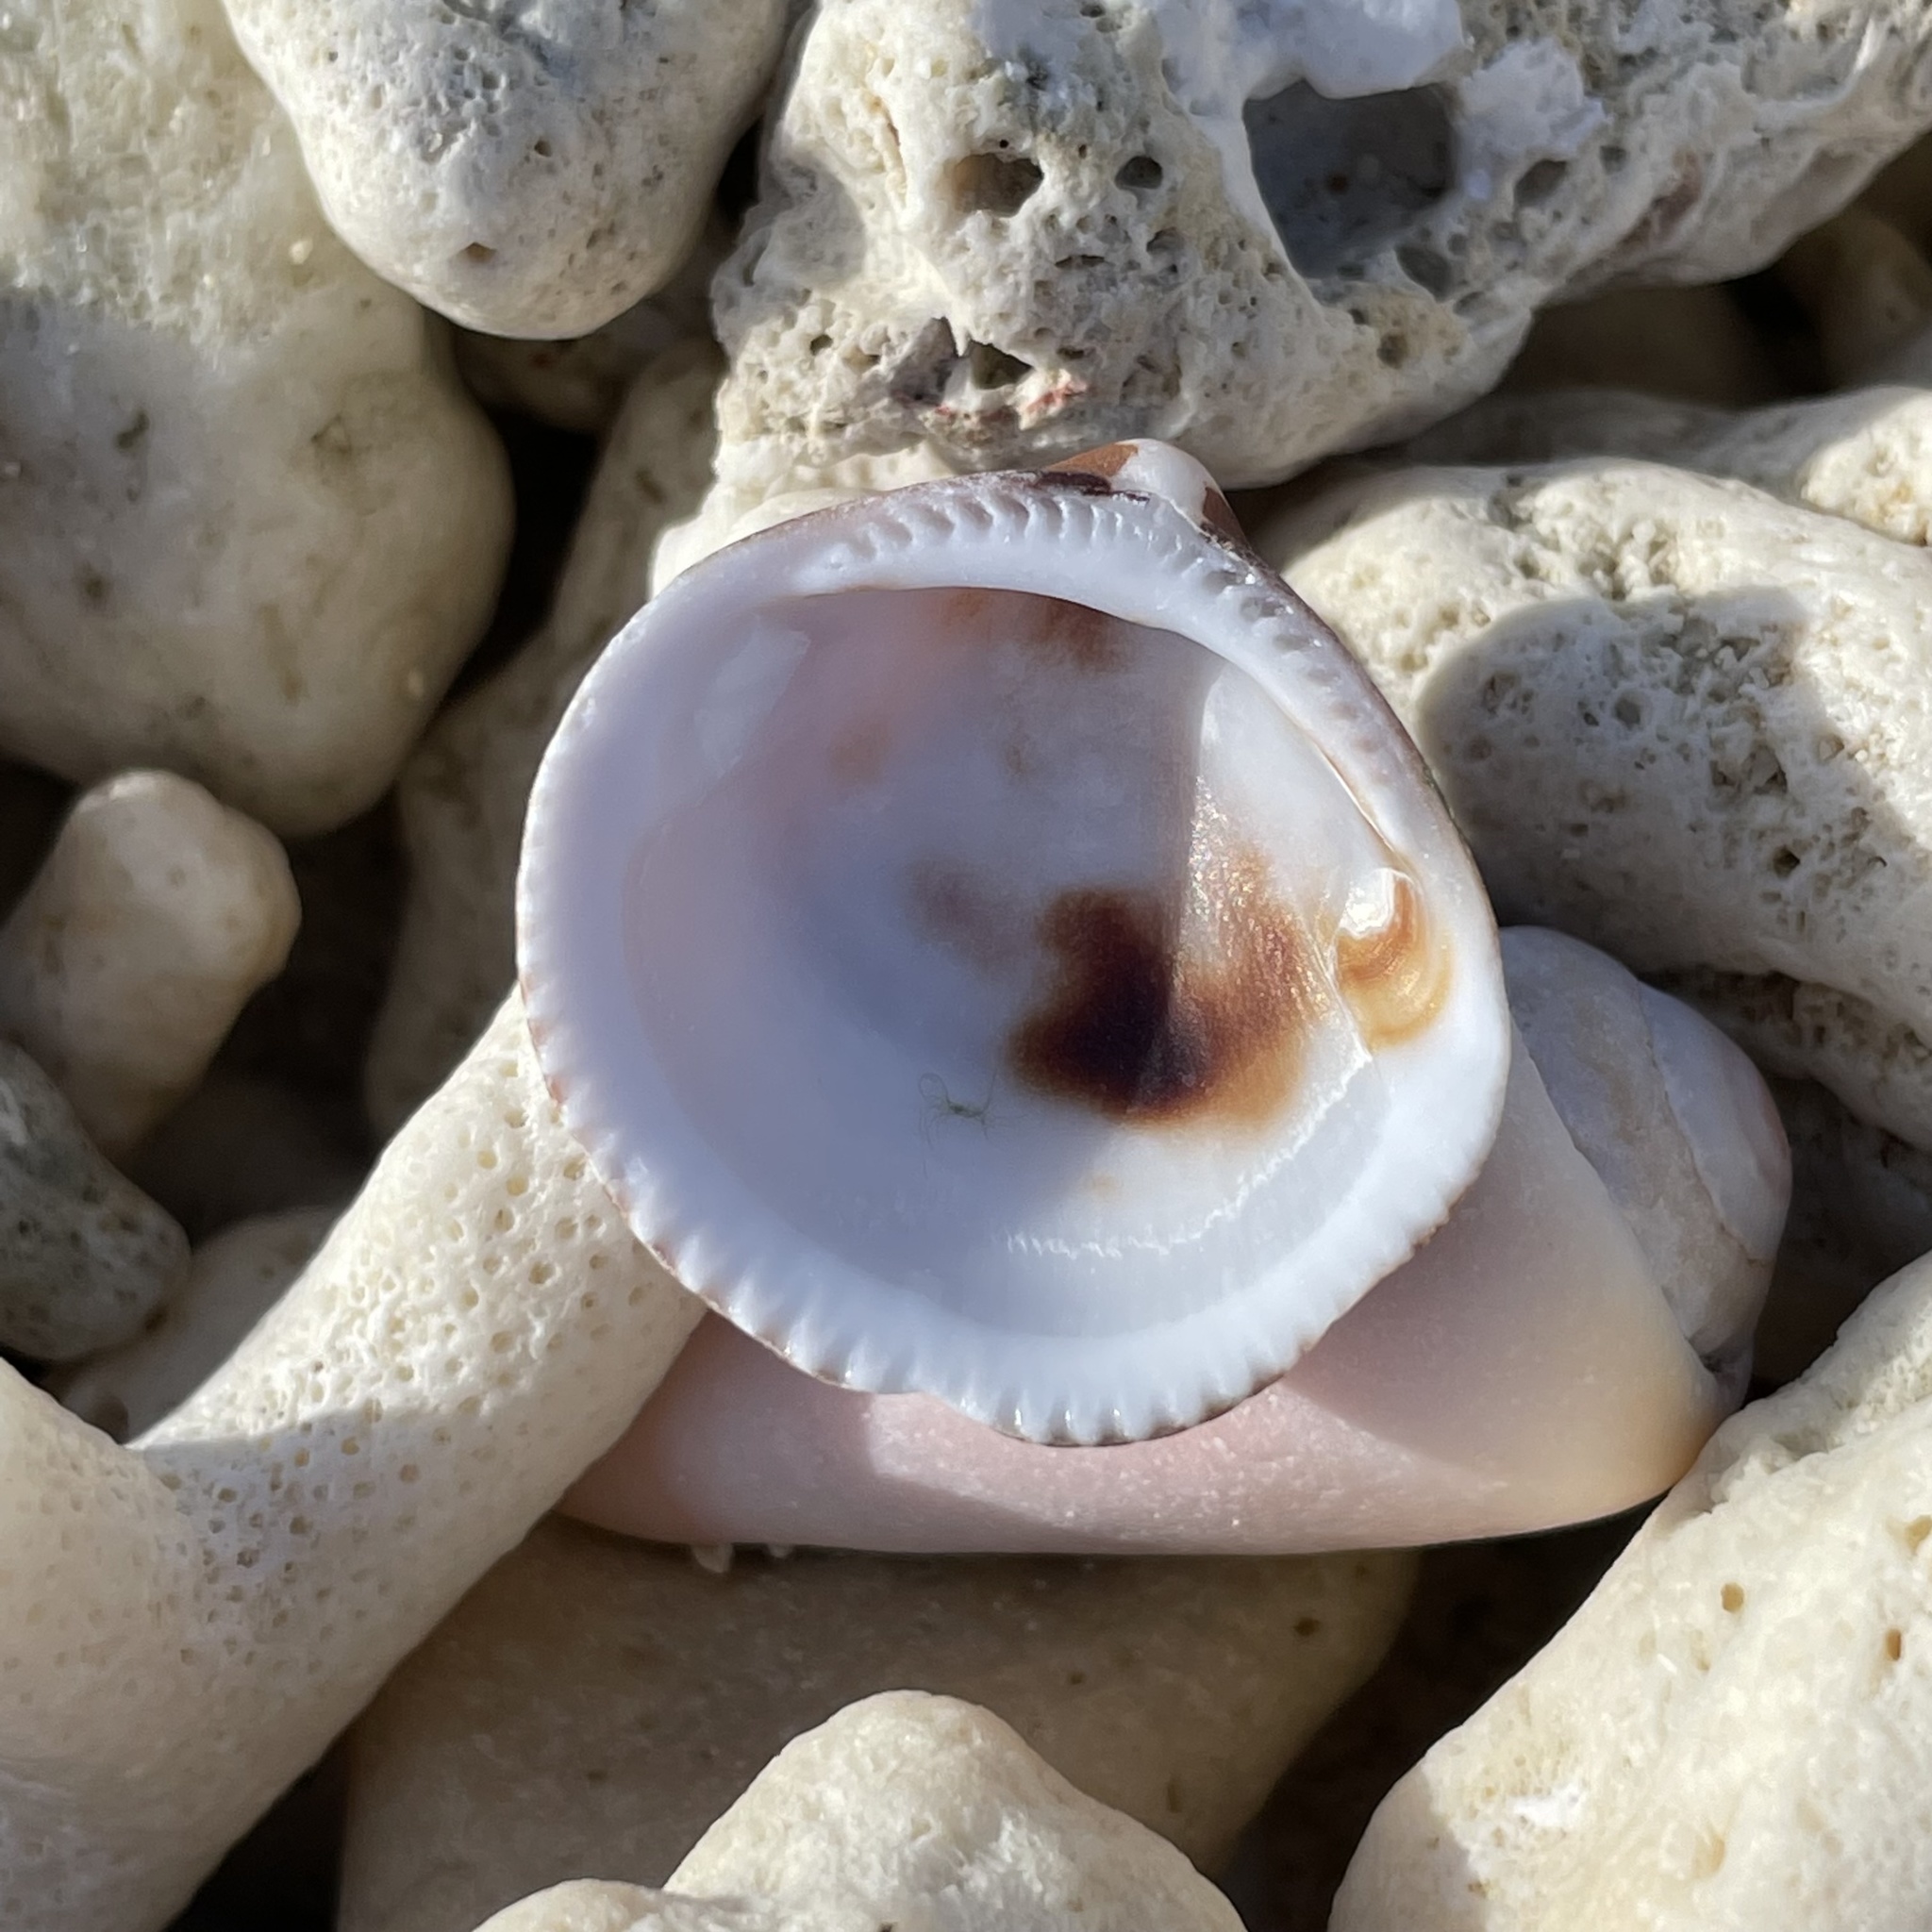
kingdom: Animalia
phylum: Mollusca
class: Bivalvia
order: Arcida
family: Glycymerididae
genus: Glycymeris
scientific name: Glycymeris reevei
